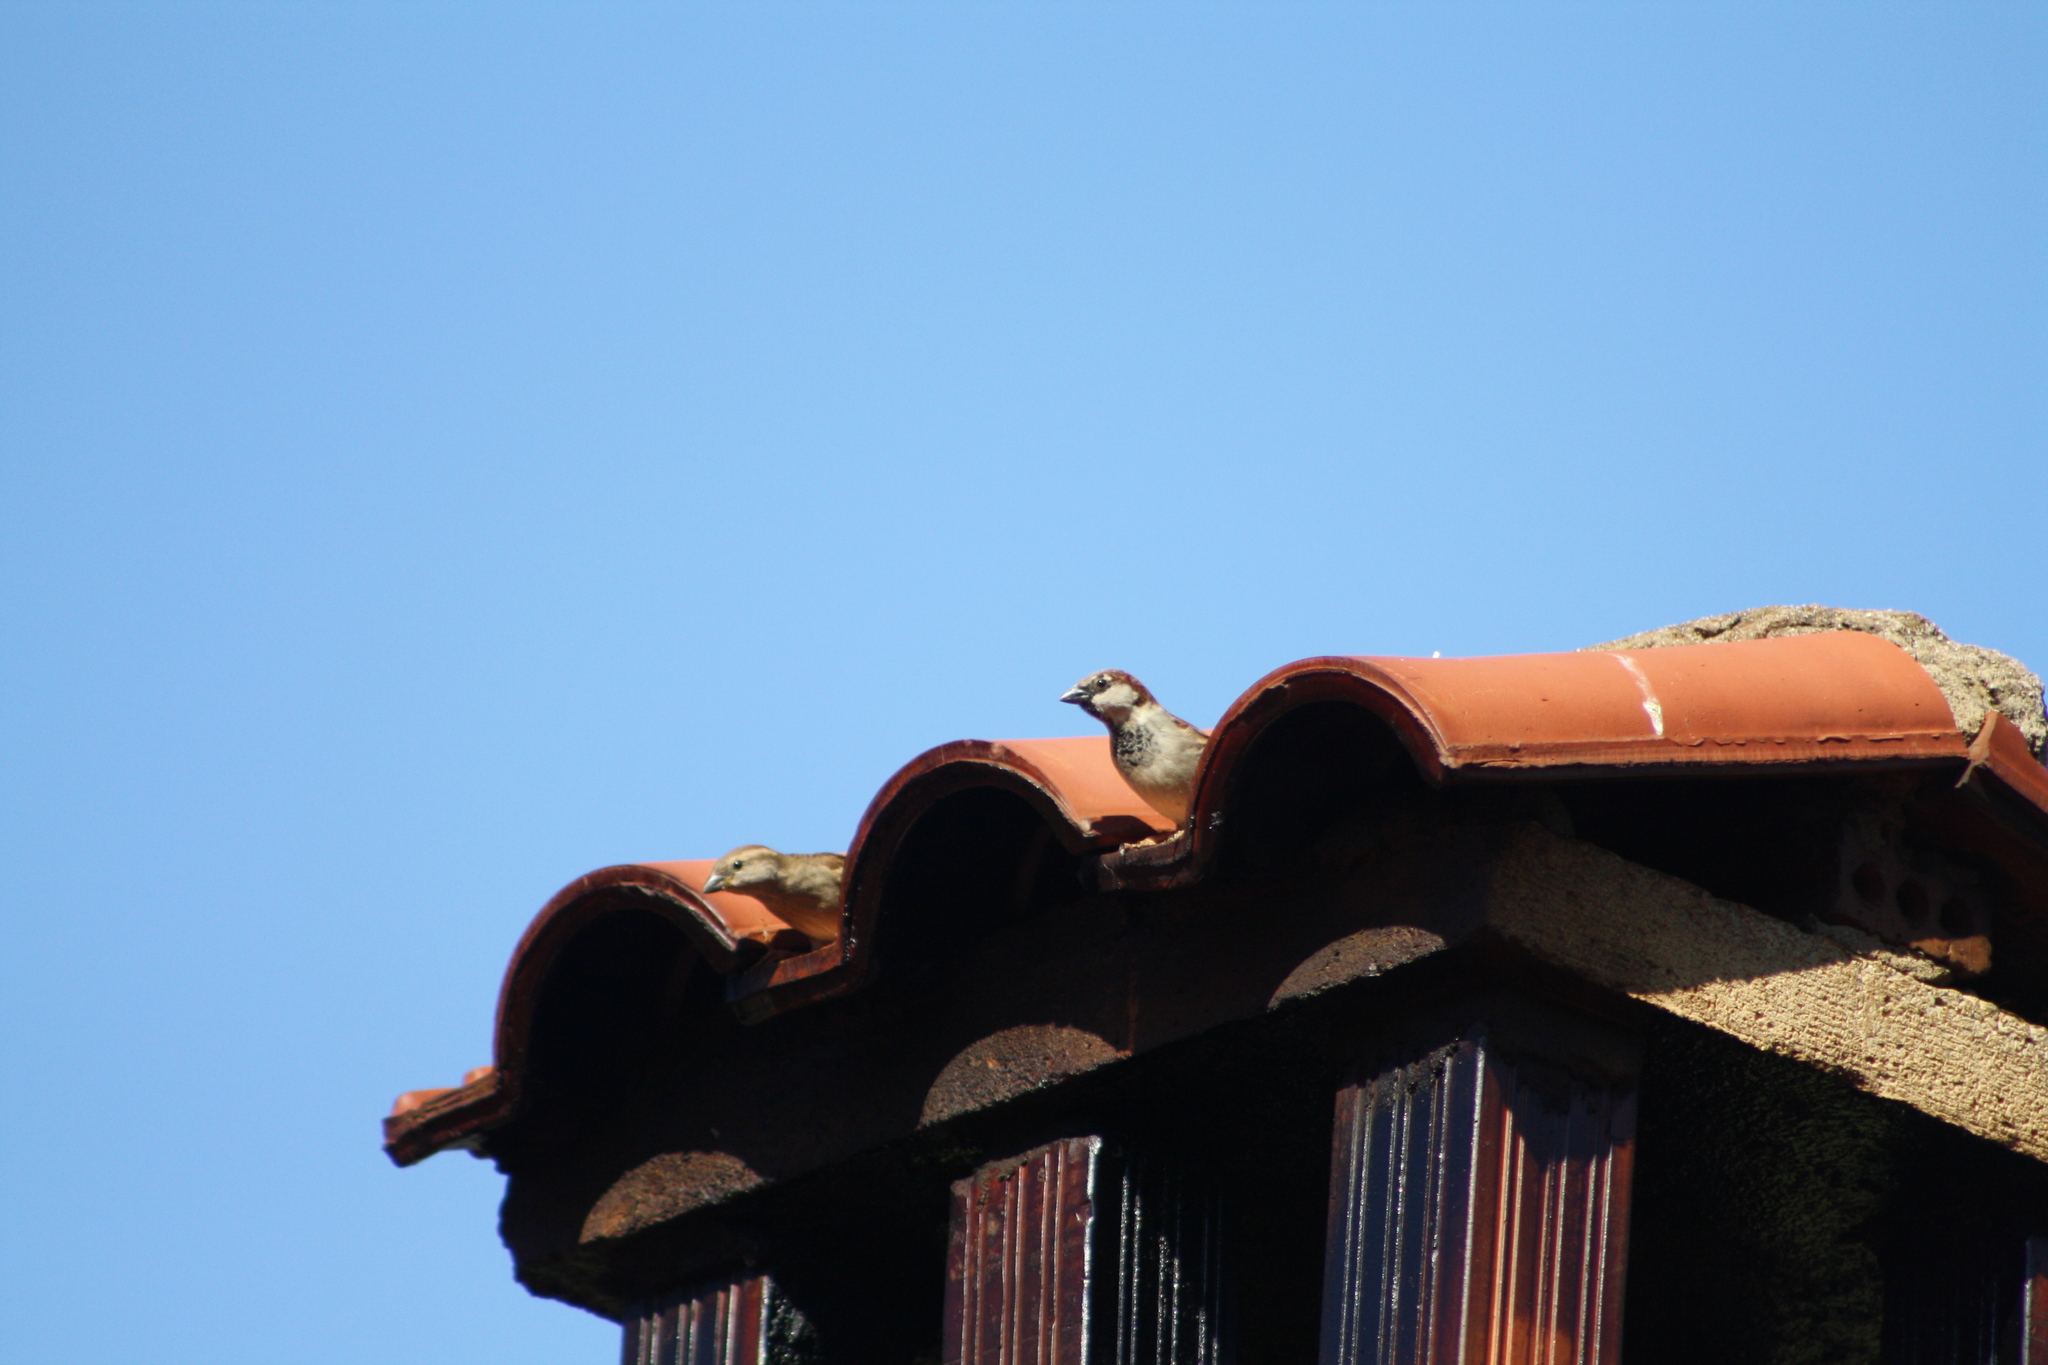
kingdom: Animalia
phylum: Chordata
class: Aves
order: Passeriformes
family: Passeridae
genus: Passer
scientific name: Passer domesticus
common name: House sparrow
